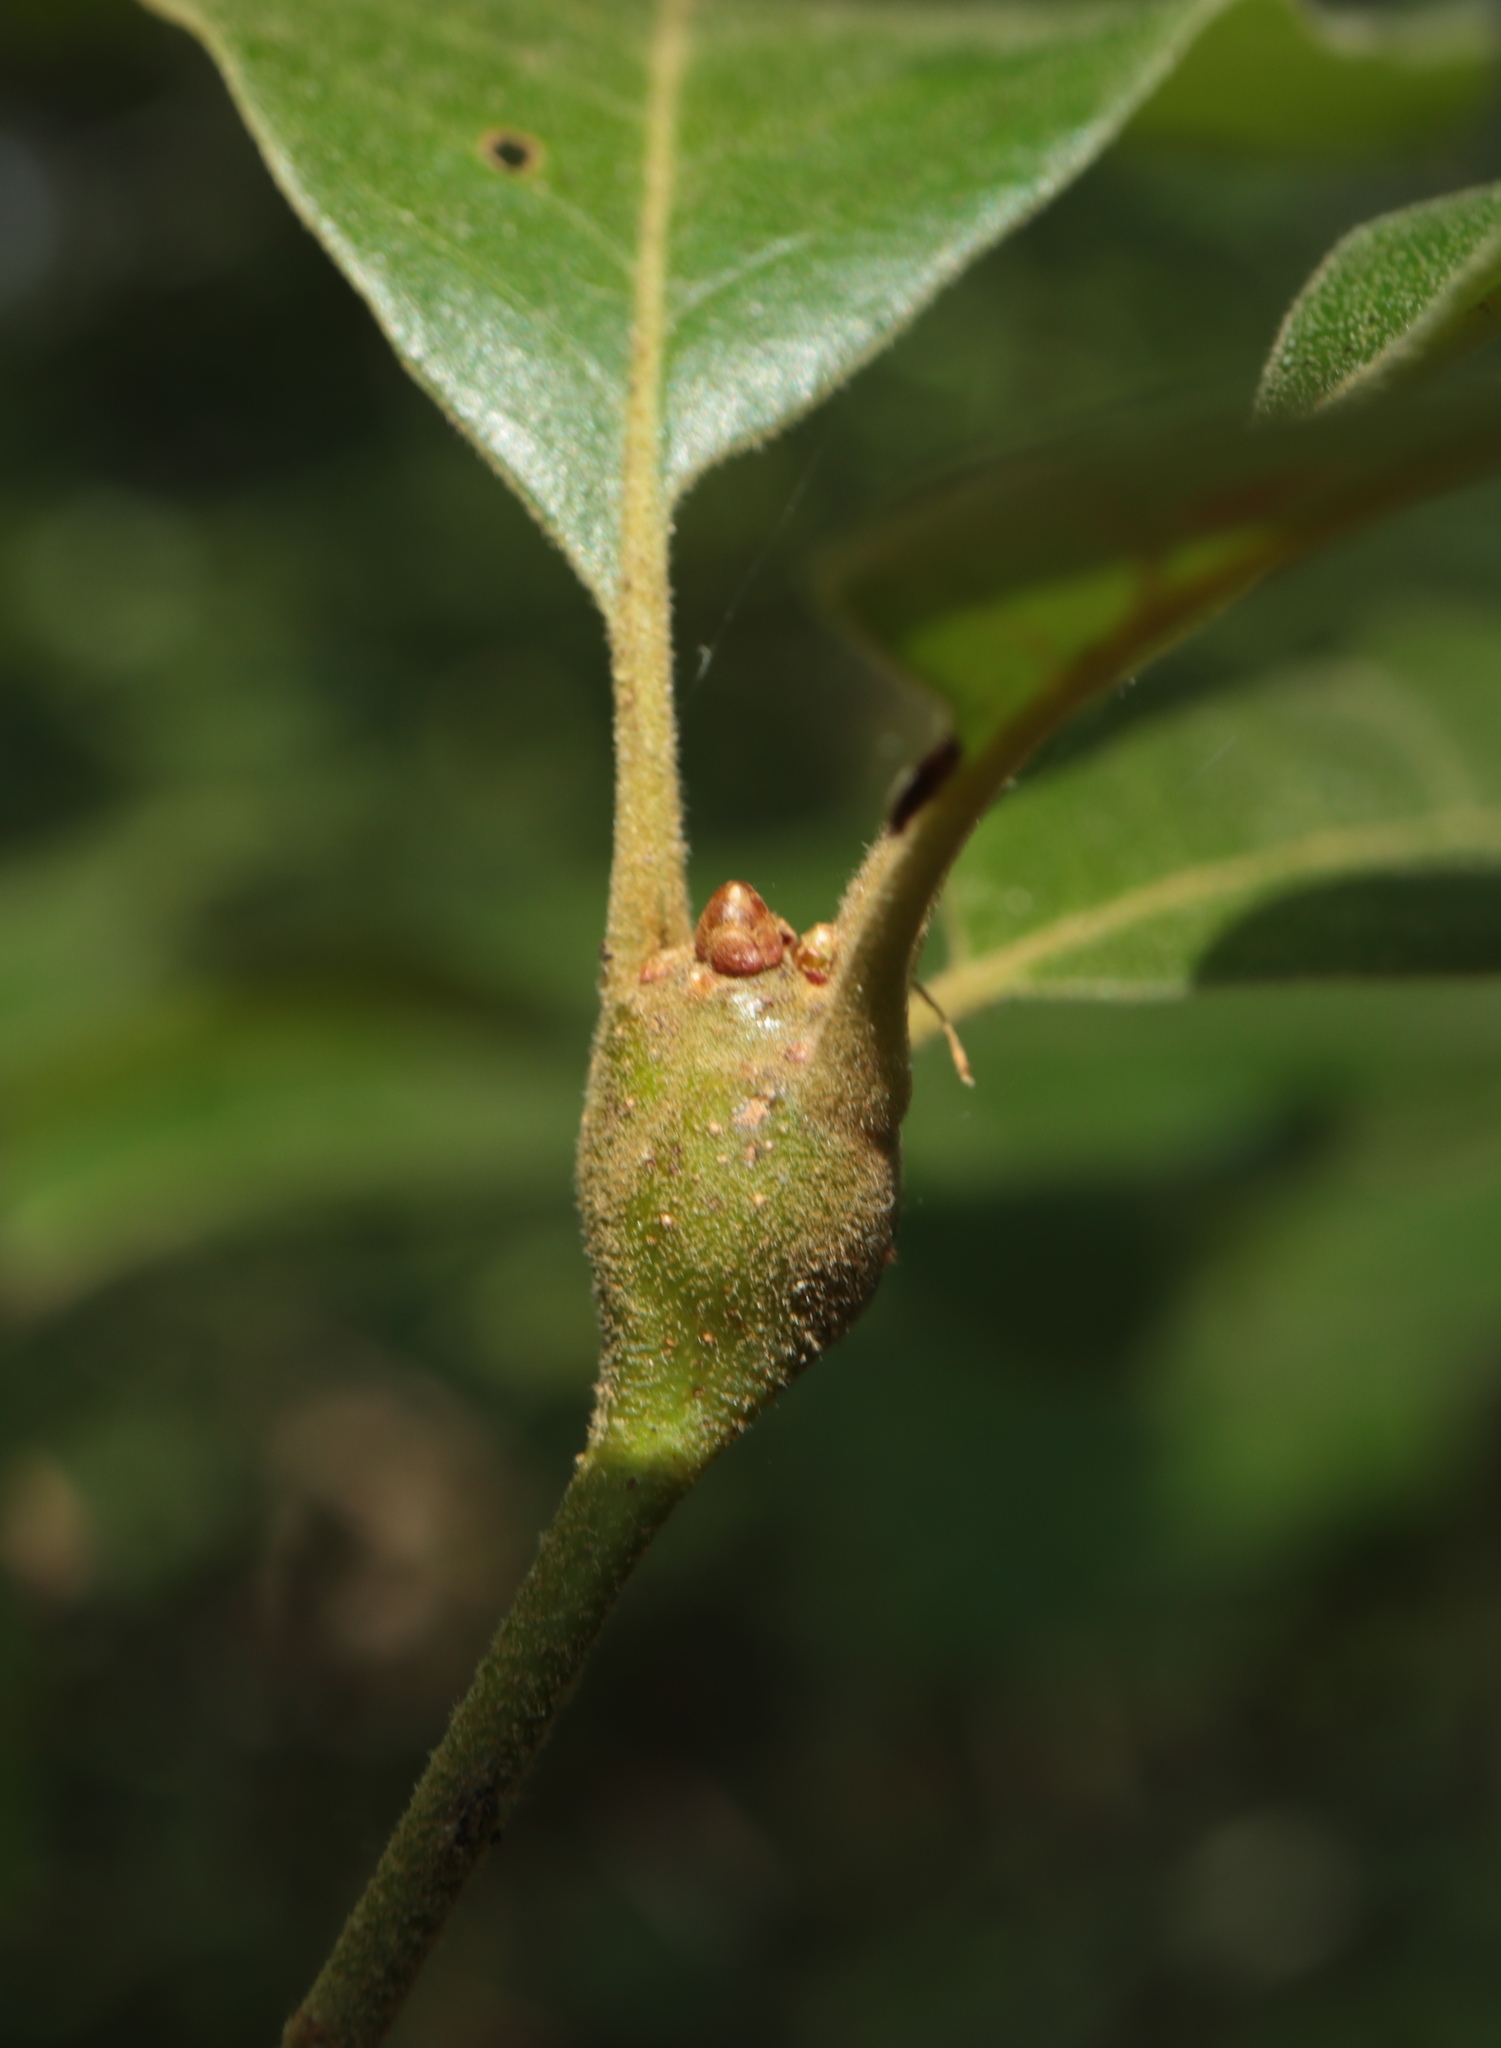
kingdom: Animalia
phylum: Arthropoda
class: Insecta
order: Hymenoptera
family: Cynipidae
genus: Zapatella
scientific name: Zapatella quercusphellos
